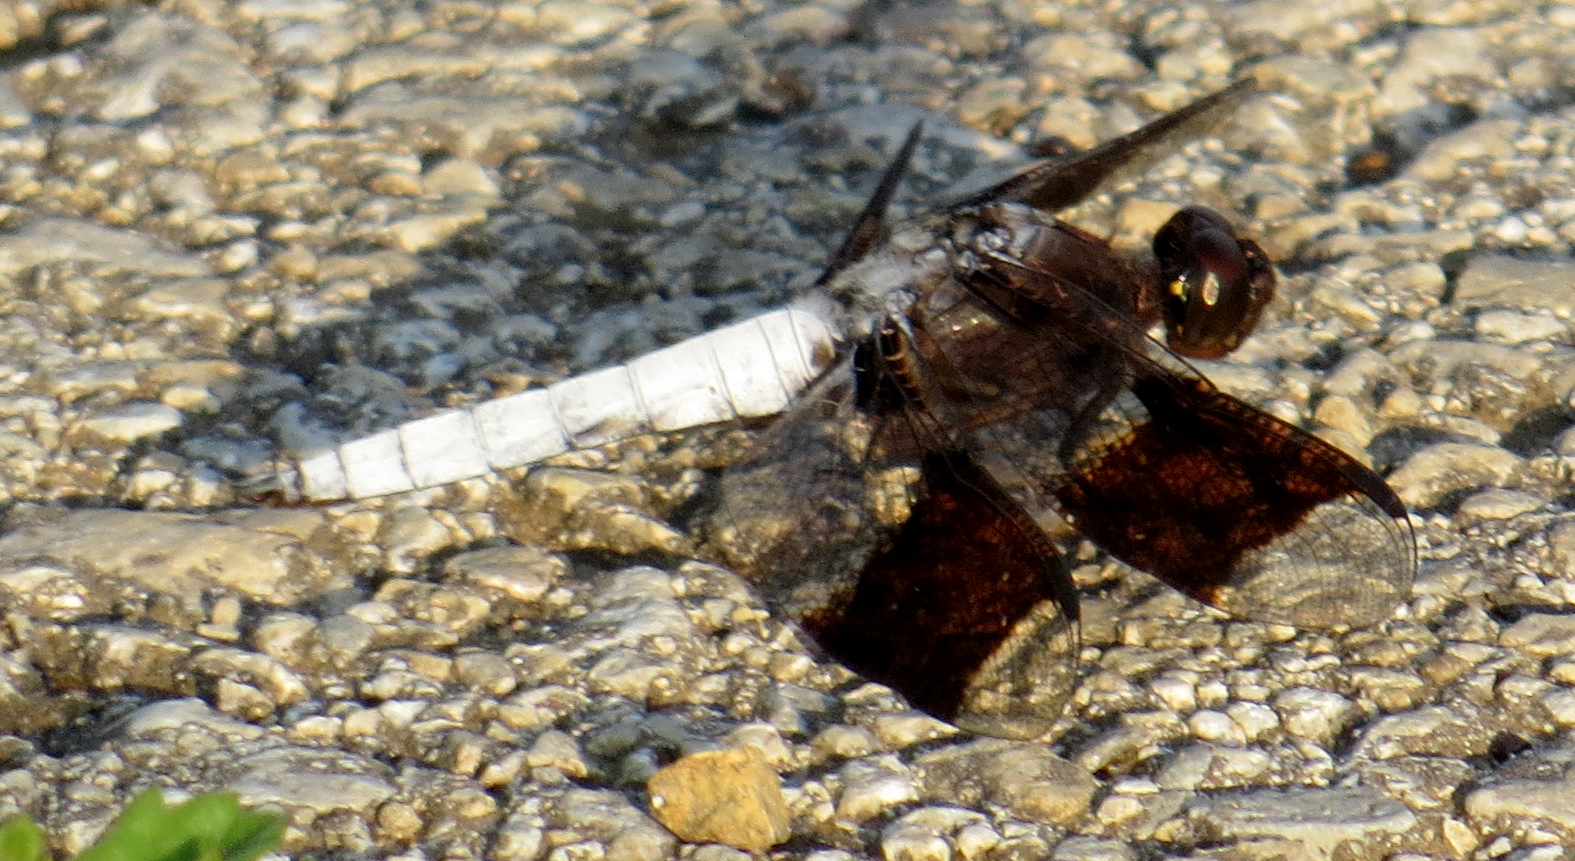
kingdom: Animalia
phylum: Arthropoda
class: Insecta
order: Odonata
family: Libellulidae
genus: Plathemis
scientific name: Plathemis lydia
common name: Common whitetail
